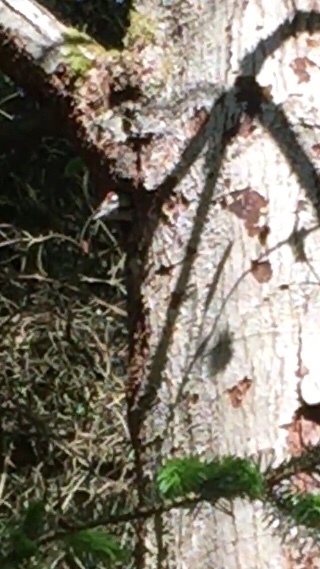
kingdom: Animalia
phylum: Chordata
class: Aves
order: Piciformes
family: Picidae
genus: Dendrocopos
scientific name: Dendrocopos major
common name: Great spotted woodpecker
